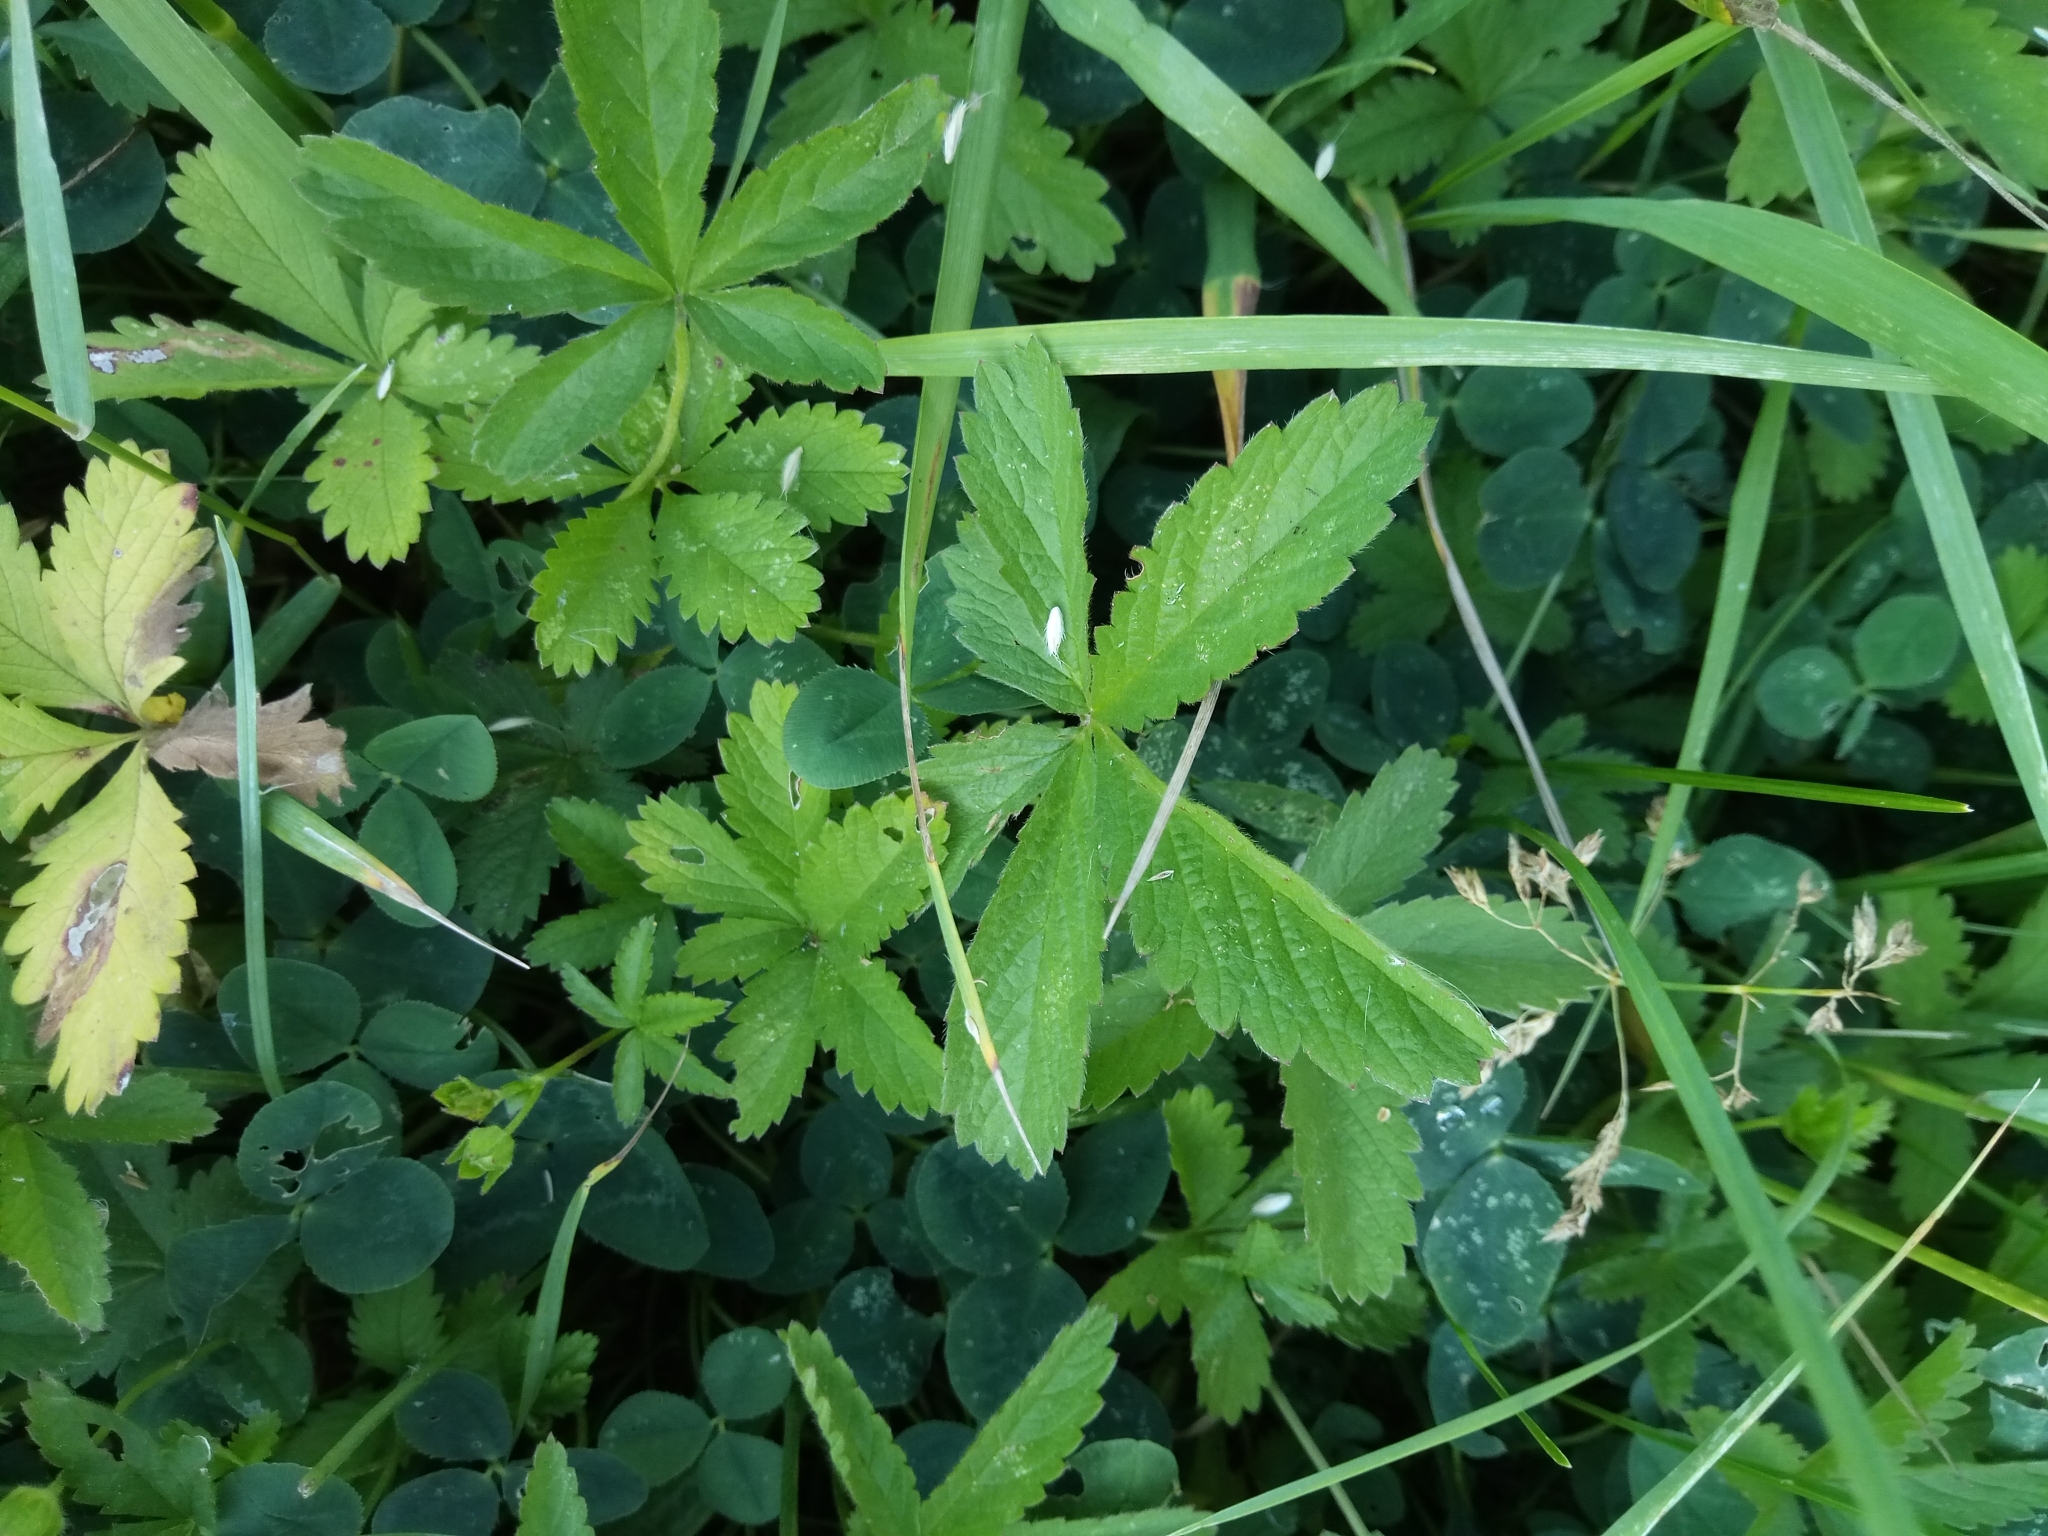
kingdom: Plantae
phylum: Tracheophyta
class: Magnoliopsida
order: Rosales
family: Rosaceae
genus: Potentilla
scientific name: Potentilla reptans
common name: Creeping cinquefoil
